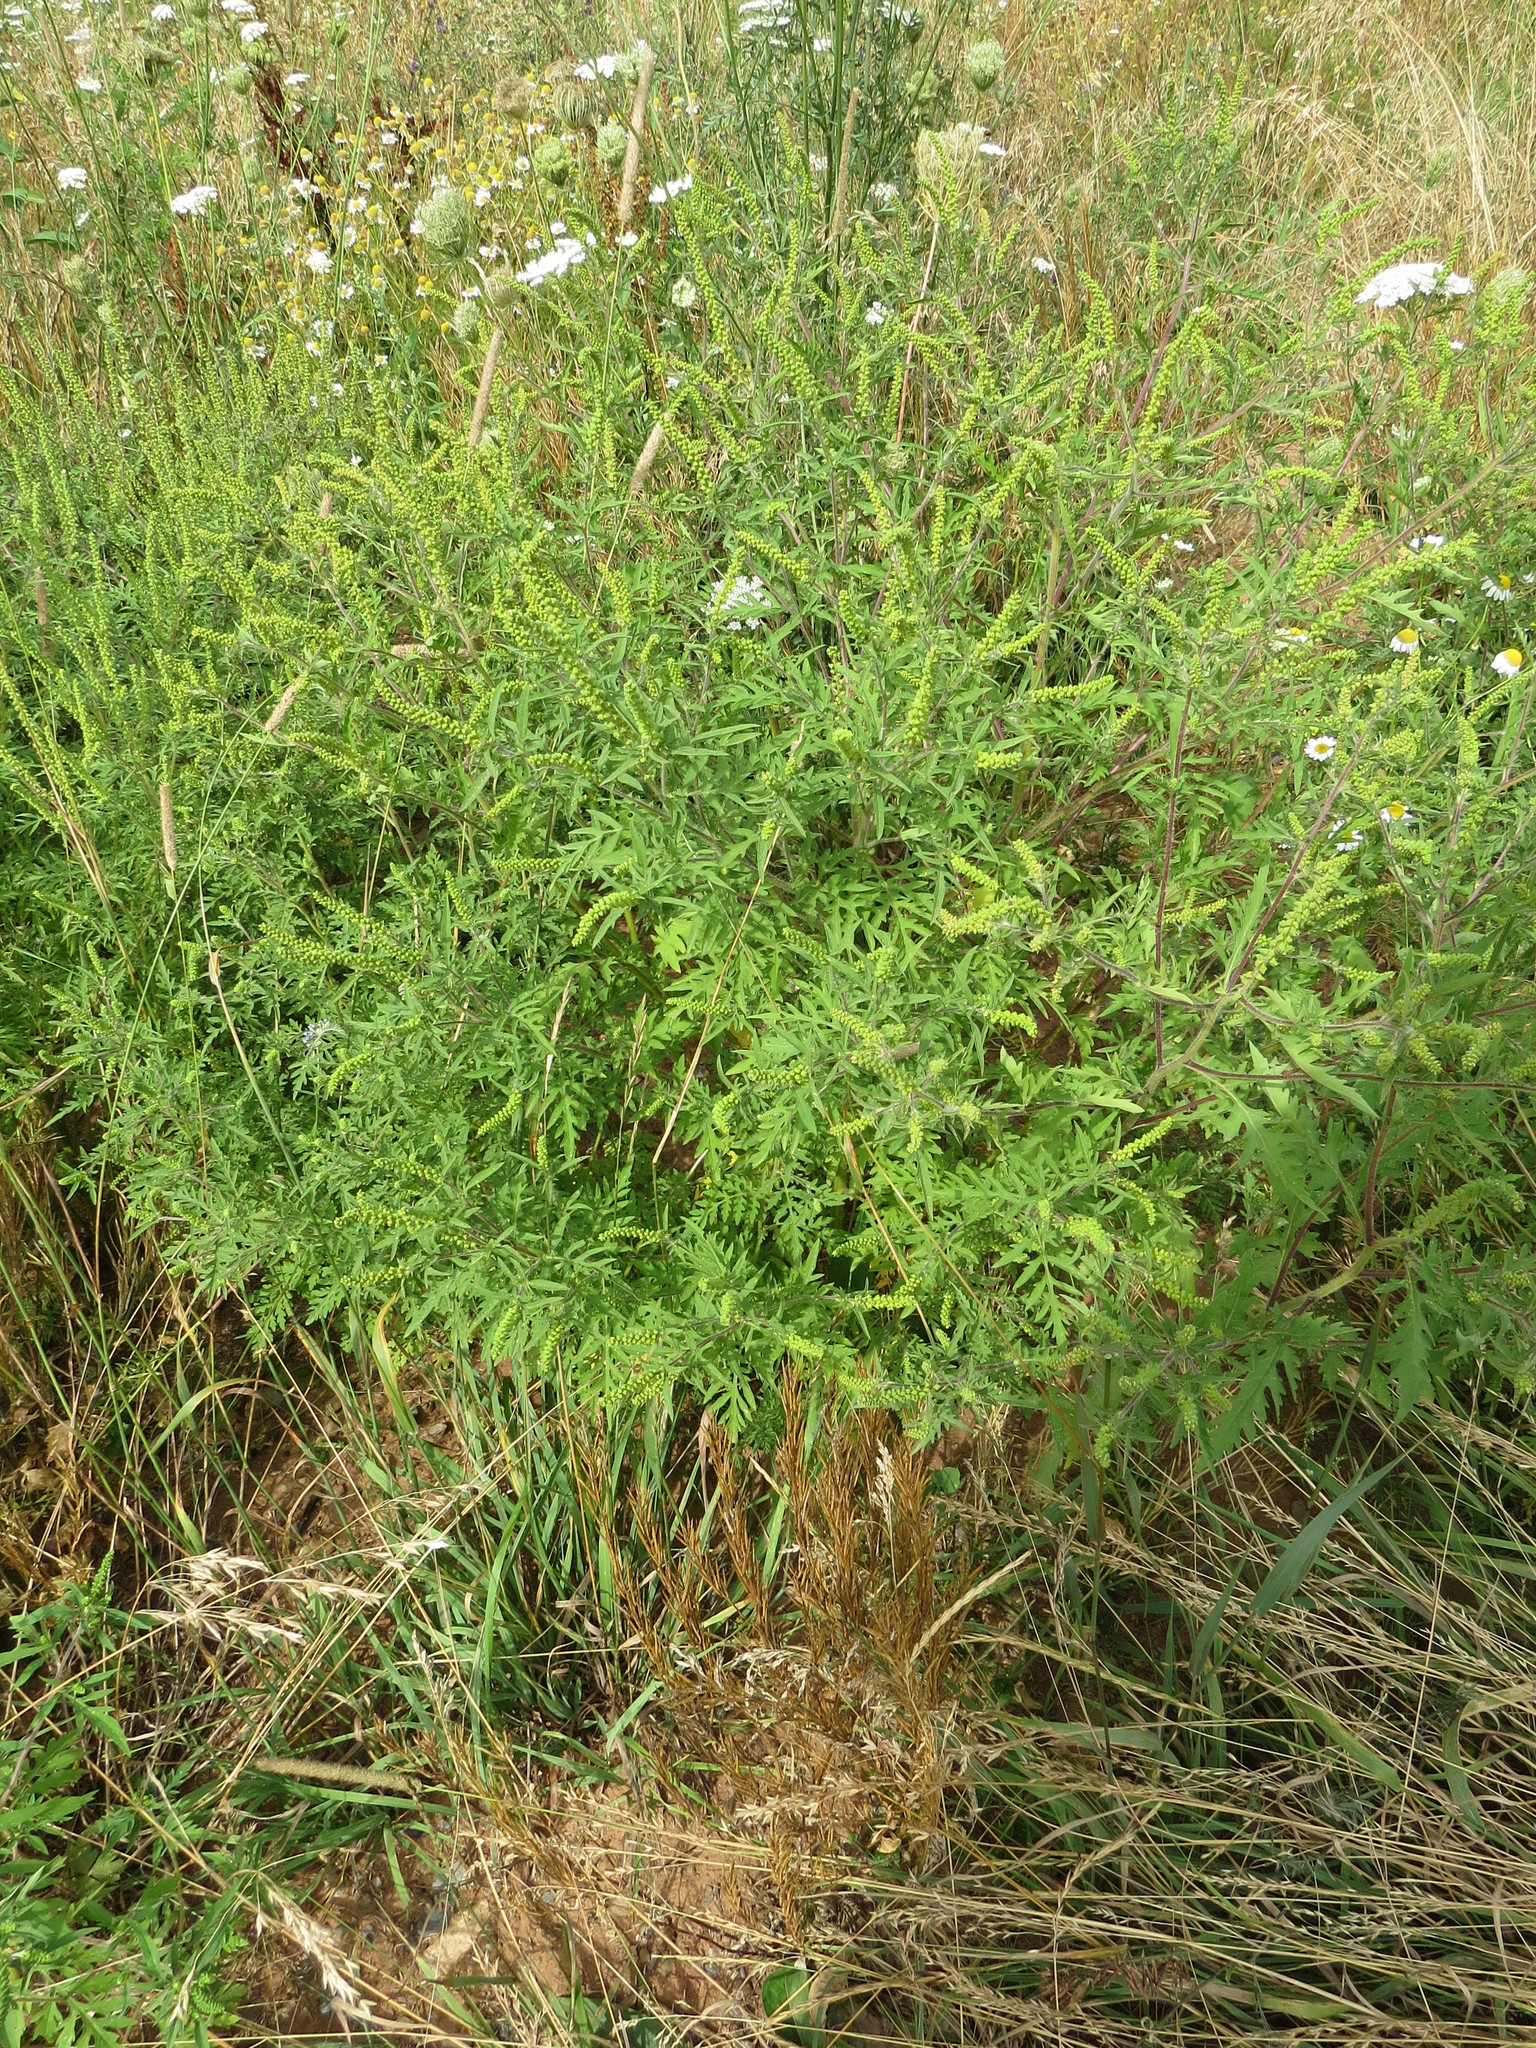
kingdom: Plantae
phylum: Tracheophyta
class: Magnoliopsida
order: Asterales
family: Asteraceae
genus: Ambrosia
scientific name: Ambrosia artemisiifolia
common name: Annual ragweed
